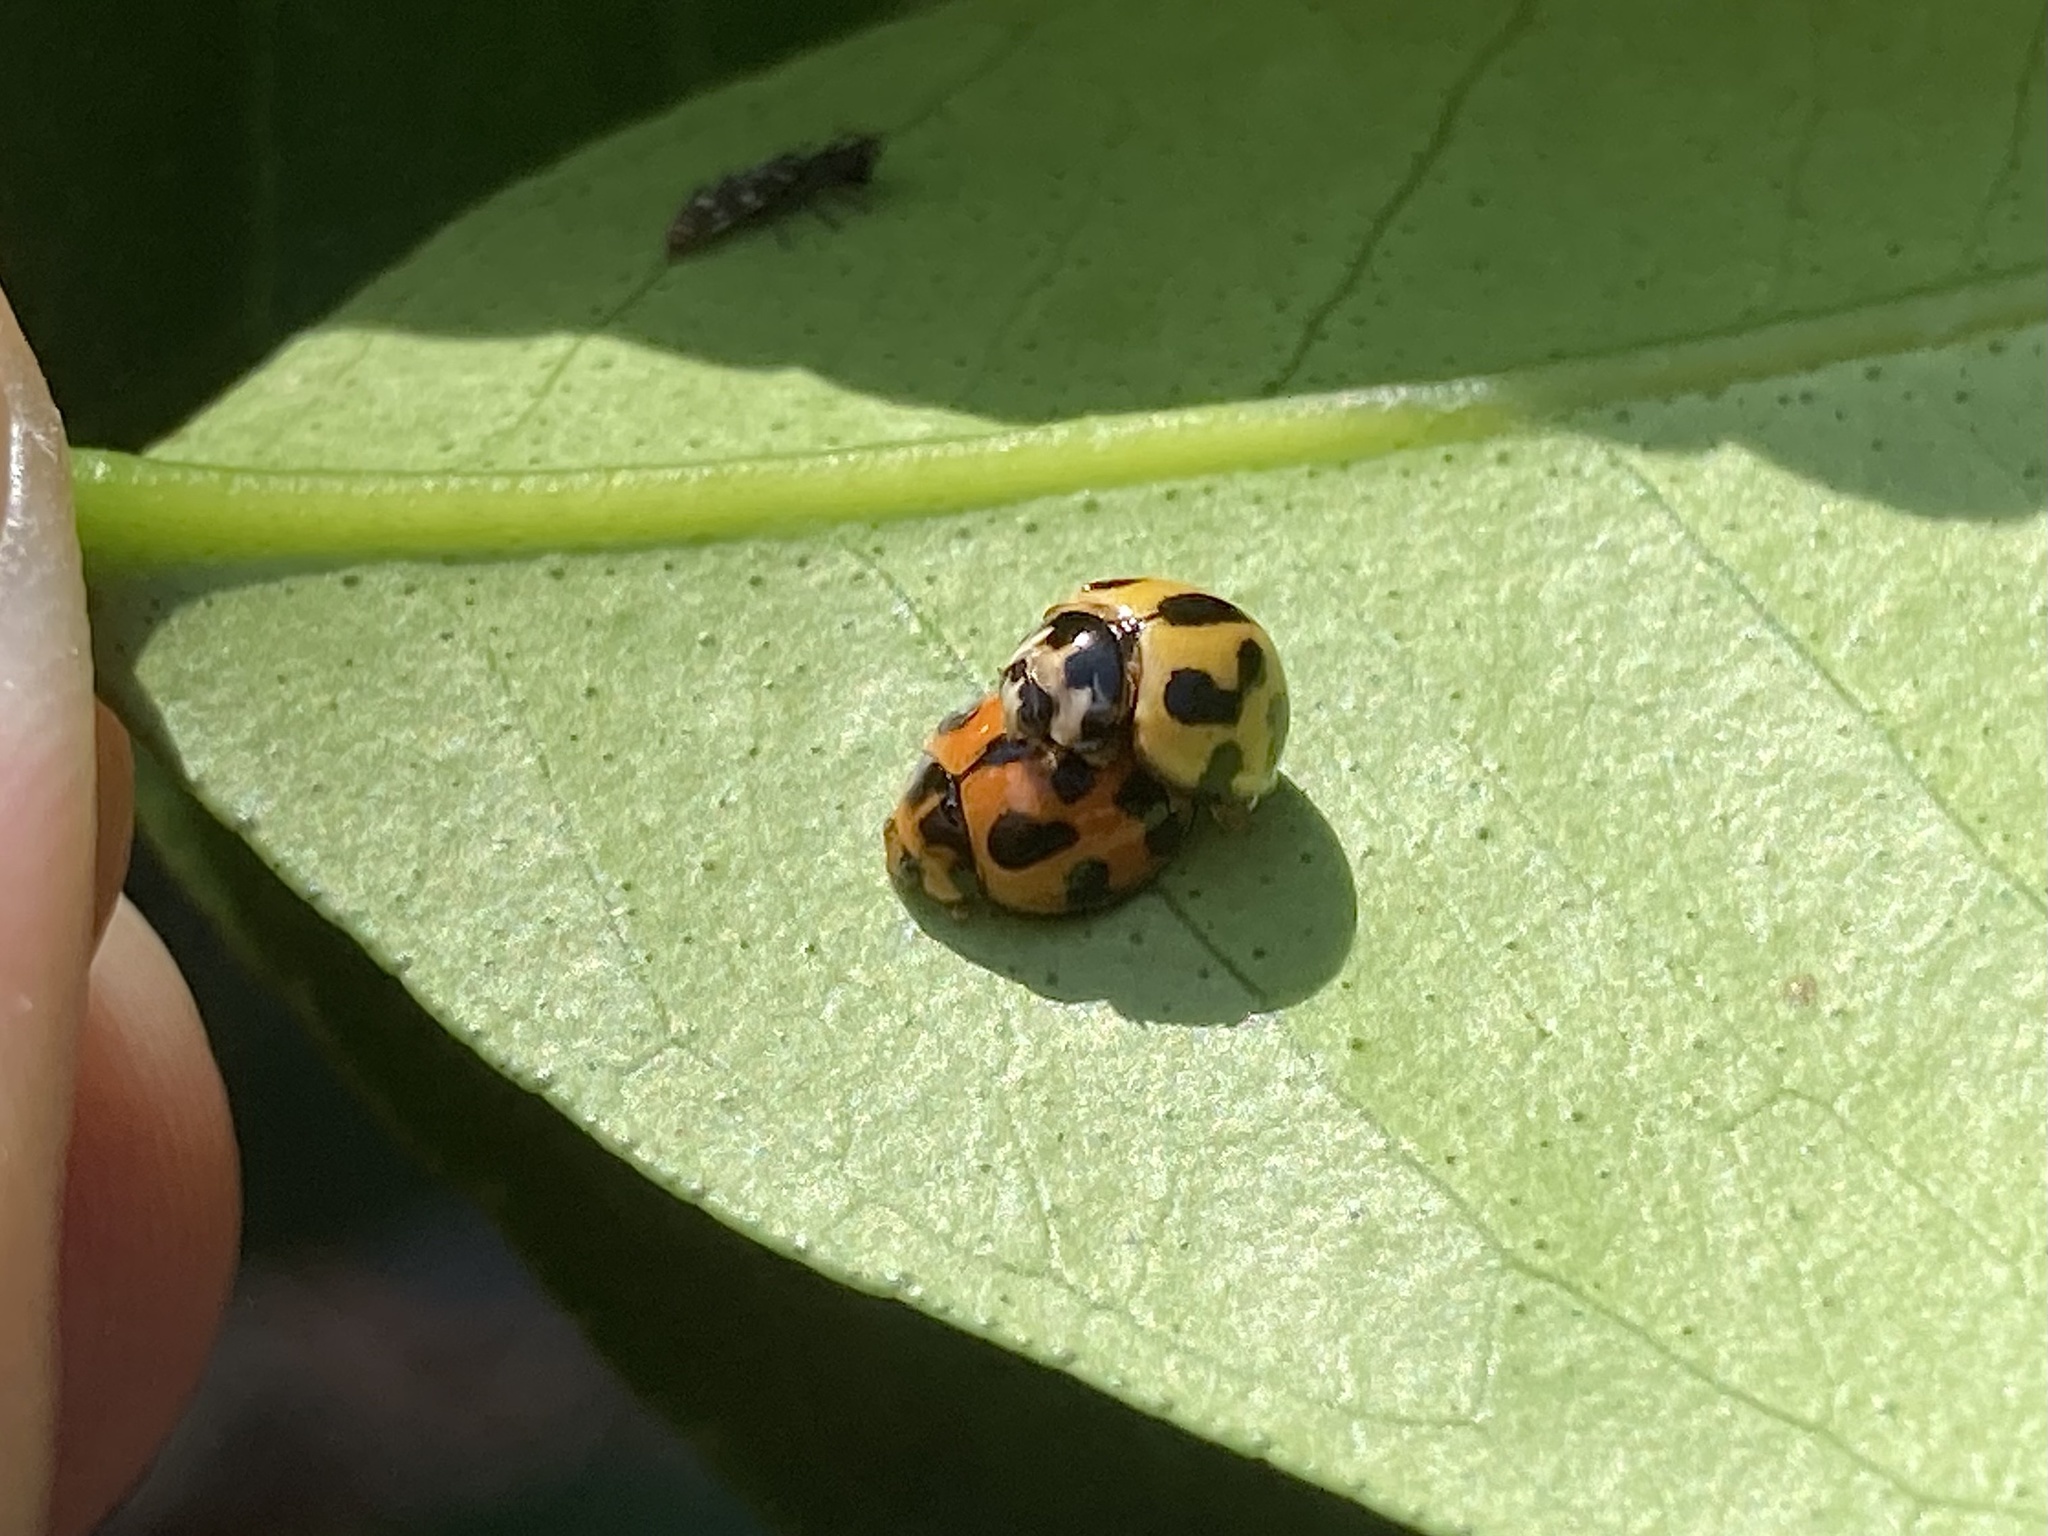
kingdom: Animalia
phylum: Arthropoda
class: Insecta
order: Coleoptera
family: Coccinellidae
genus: Coelophora
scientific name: Coelophora inaequalis
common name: Common australian lady beetle
